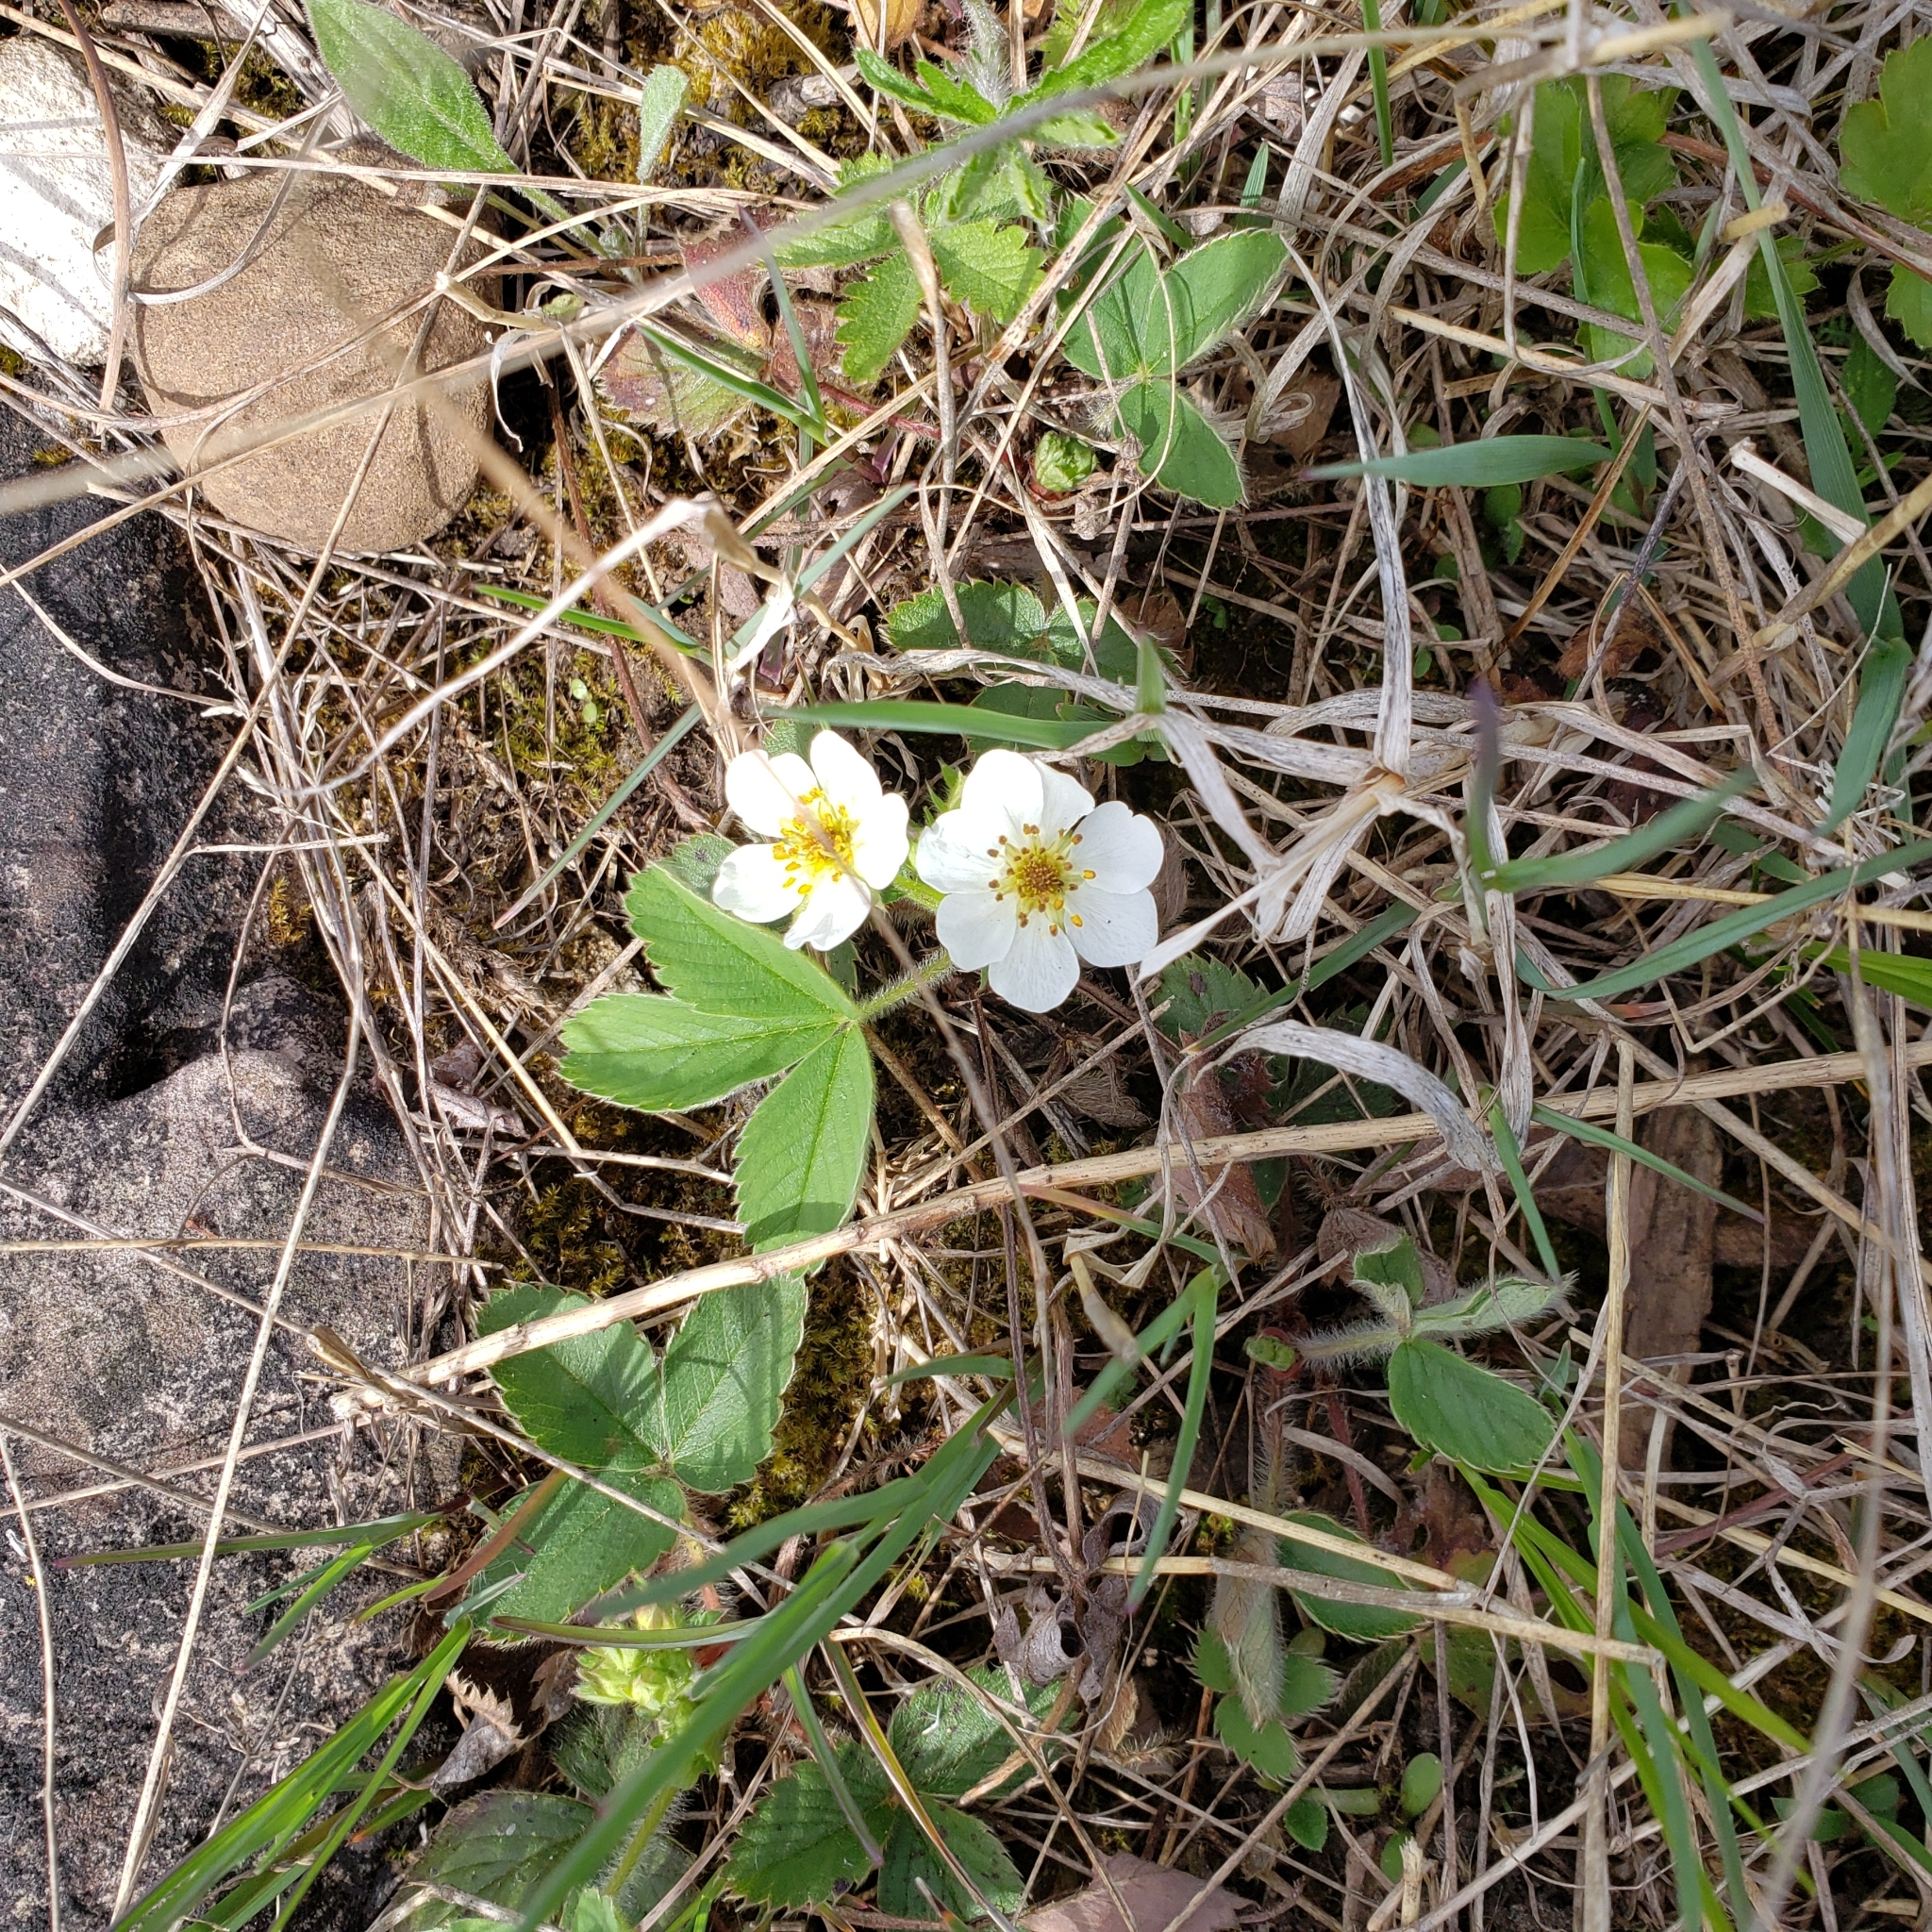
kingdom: Plantae
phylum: Tracheophyta
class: Magnoliopsida
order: Rosales
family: Rosaceae
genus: Fragaria
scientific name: Fragaria virginiana
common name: Thickleaved wild strawberry
